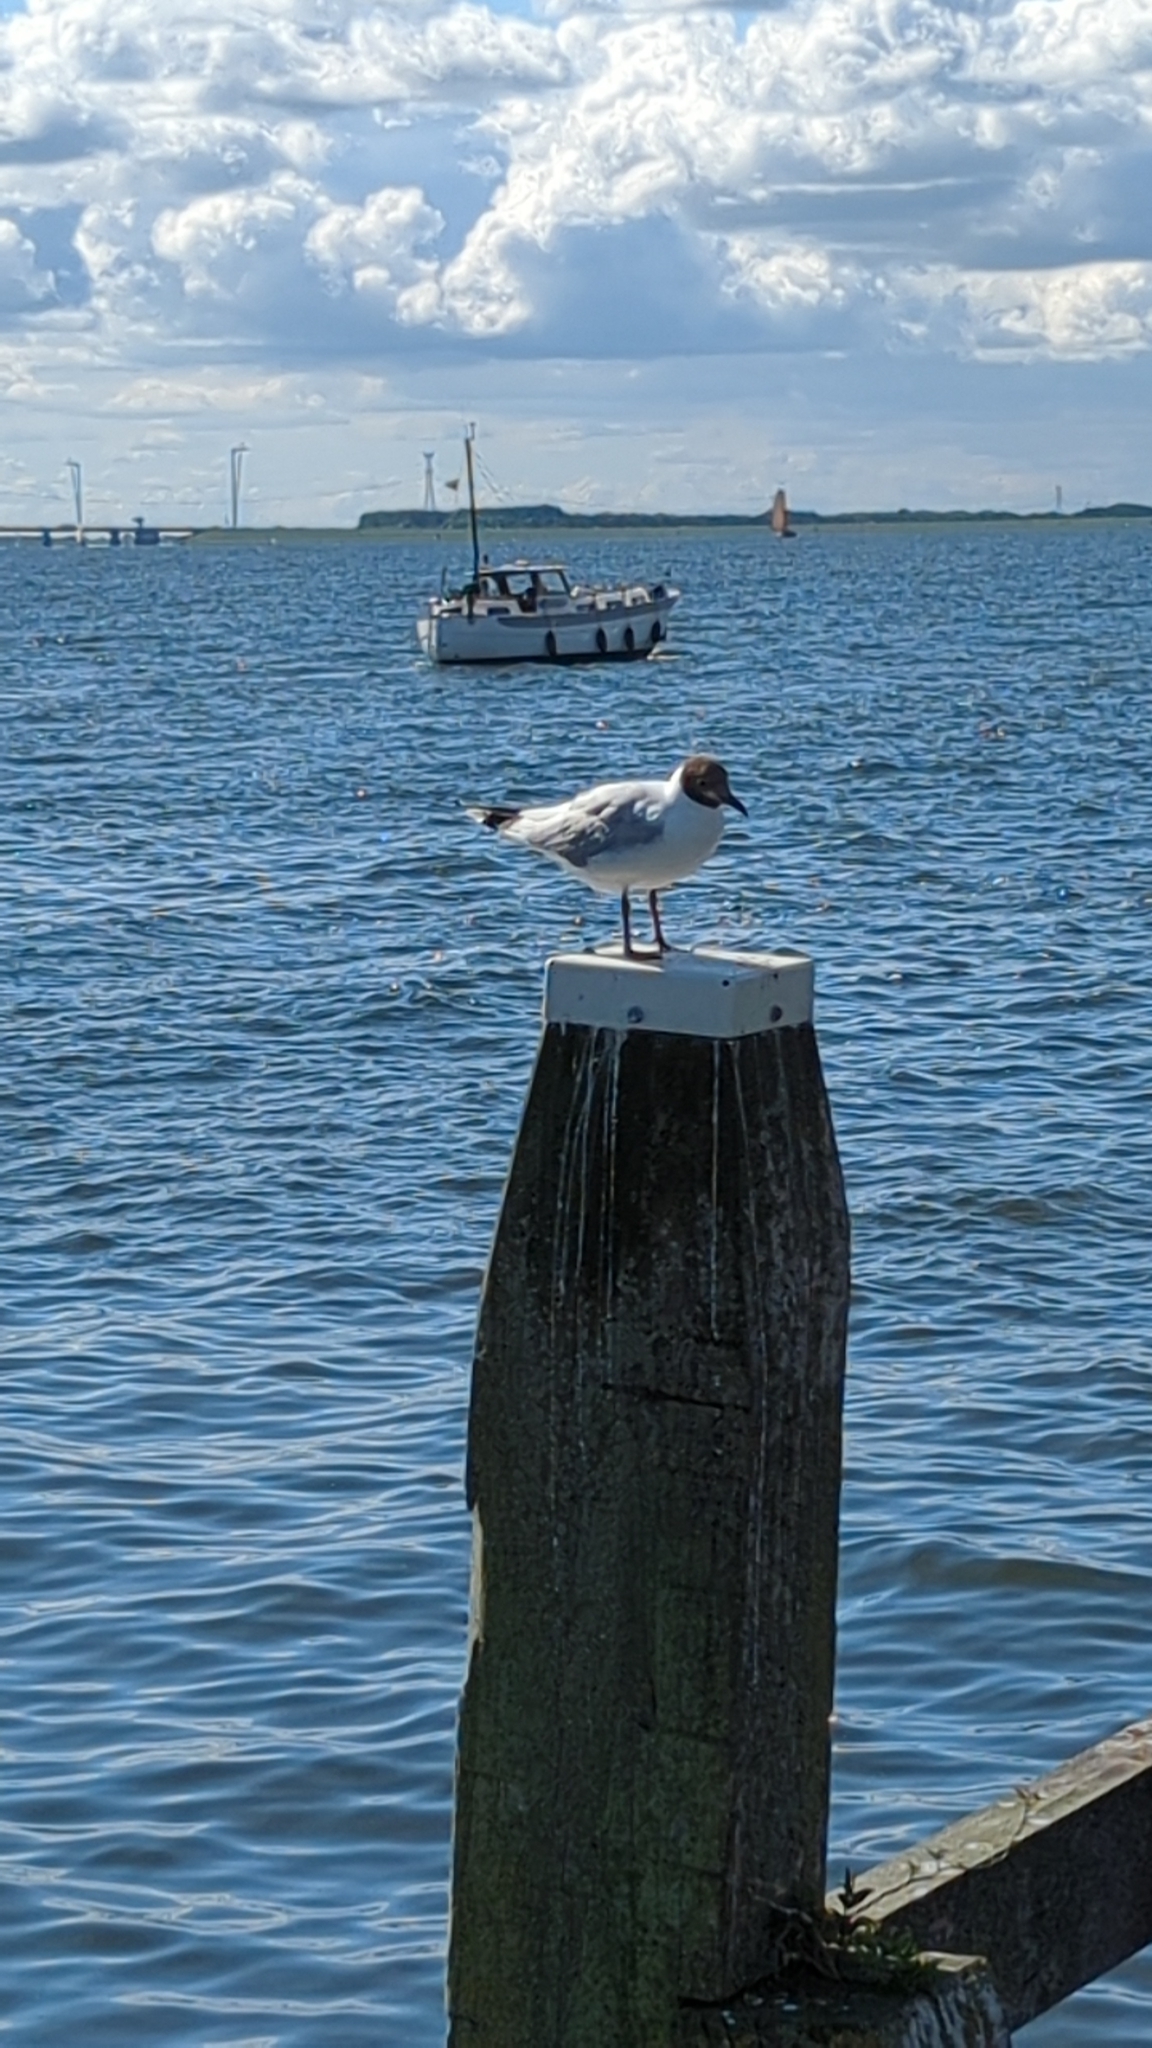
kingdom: Animalia
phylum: Chordata
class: Aves
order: Charadriiformes
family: Laridae
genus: Chroicocephalus
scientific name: Chroicocephalus ridibundus
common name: Black-headed gull
